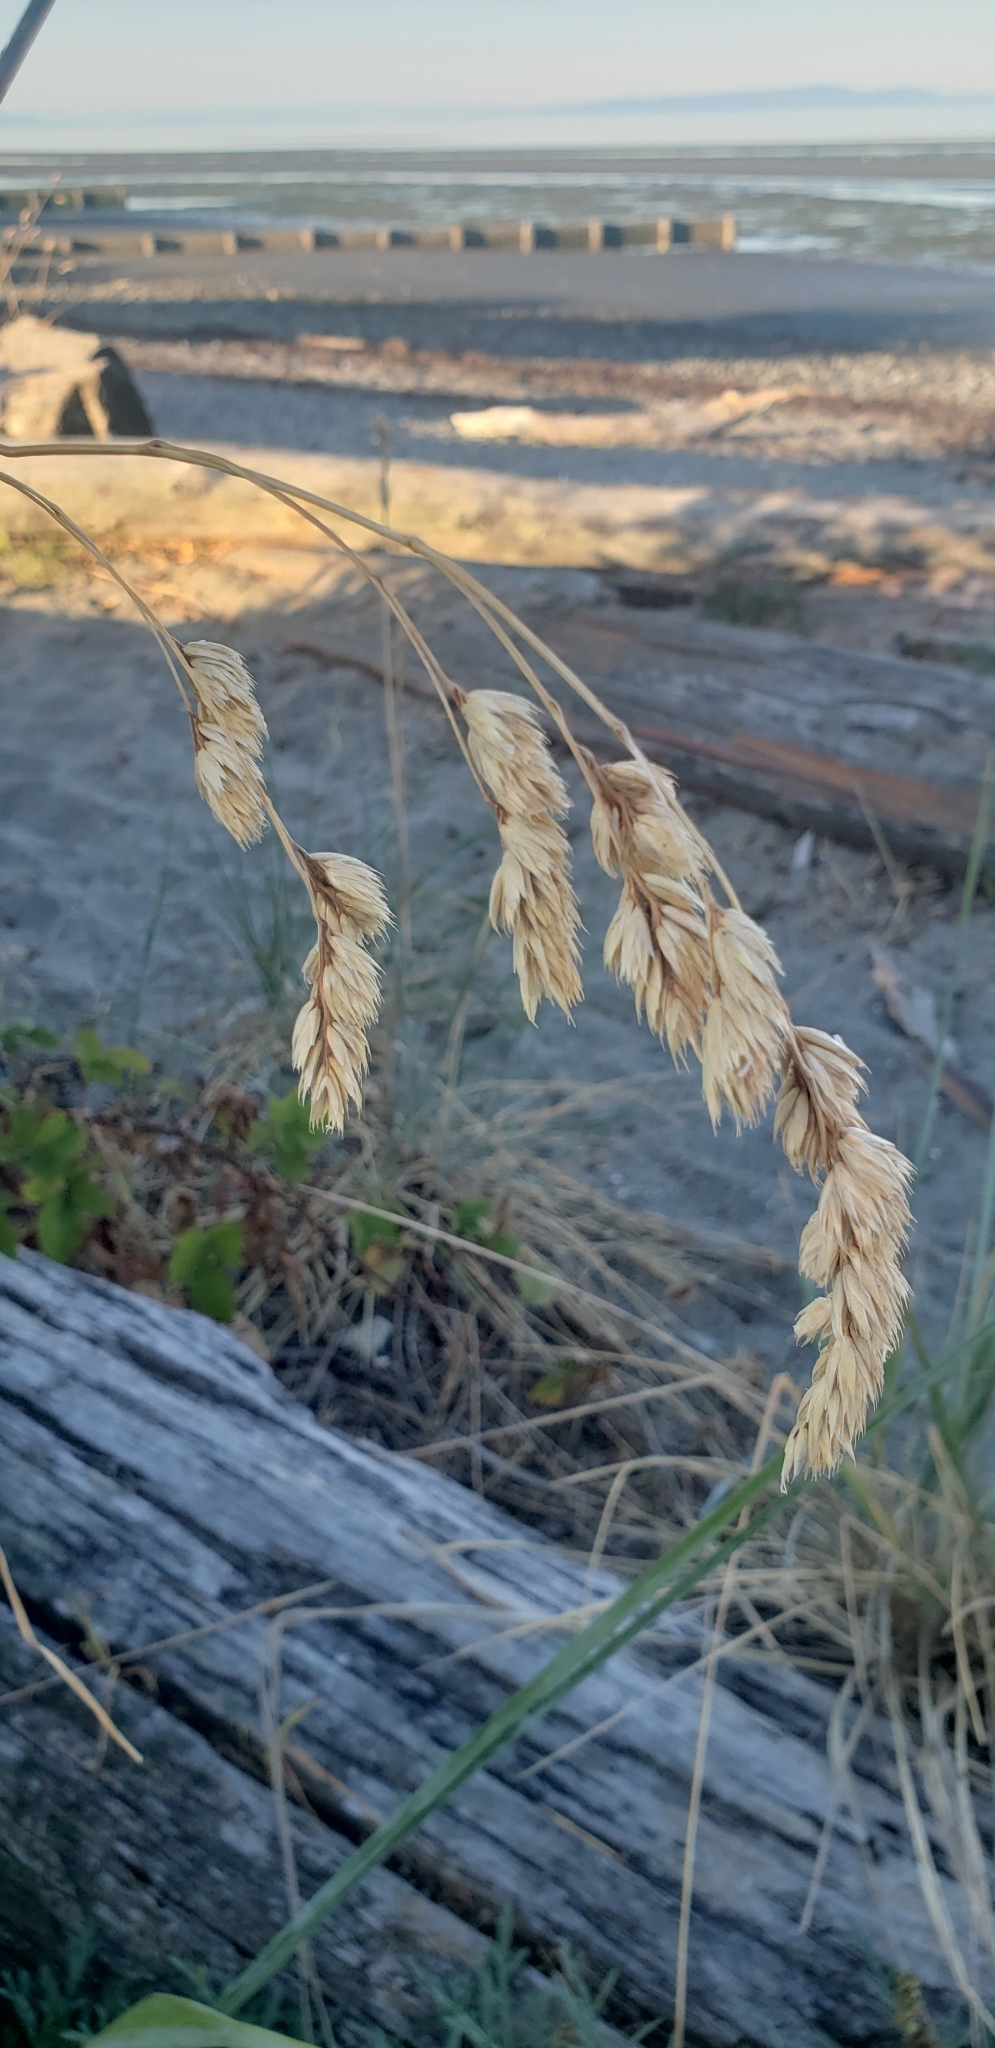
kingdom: Plantae
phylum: Tracheophyta
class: Liliopsida
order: Poales
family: Poaceae
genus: Dactylis
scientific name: Dactylis glomerata
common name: Orchardgrass
